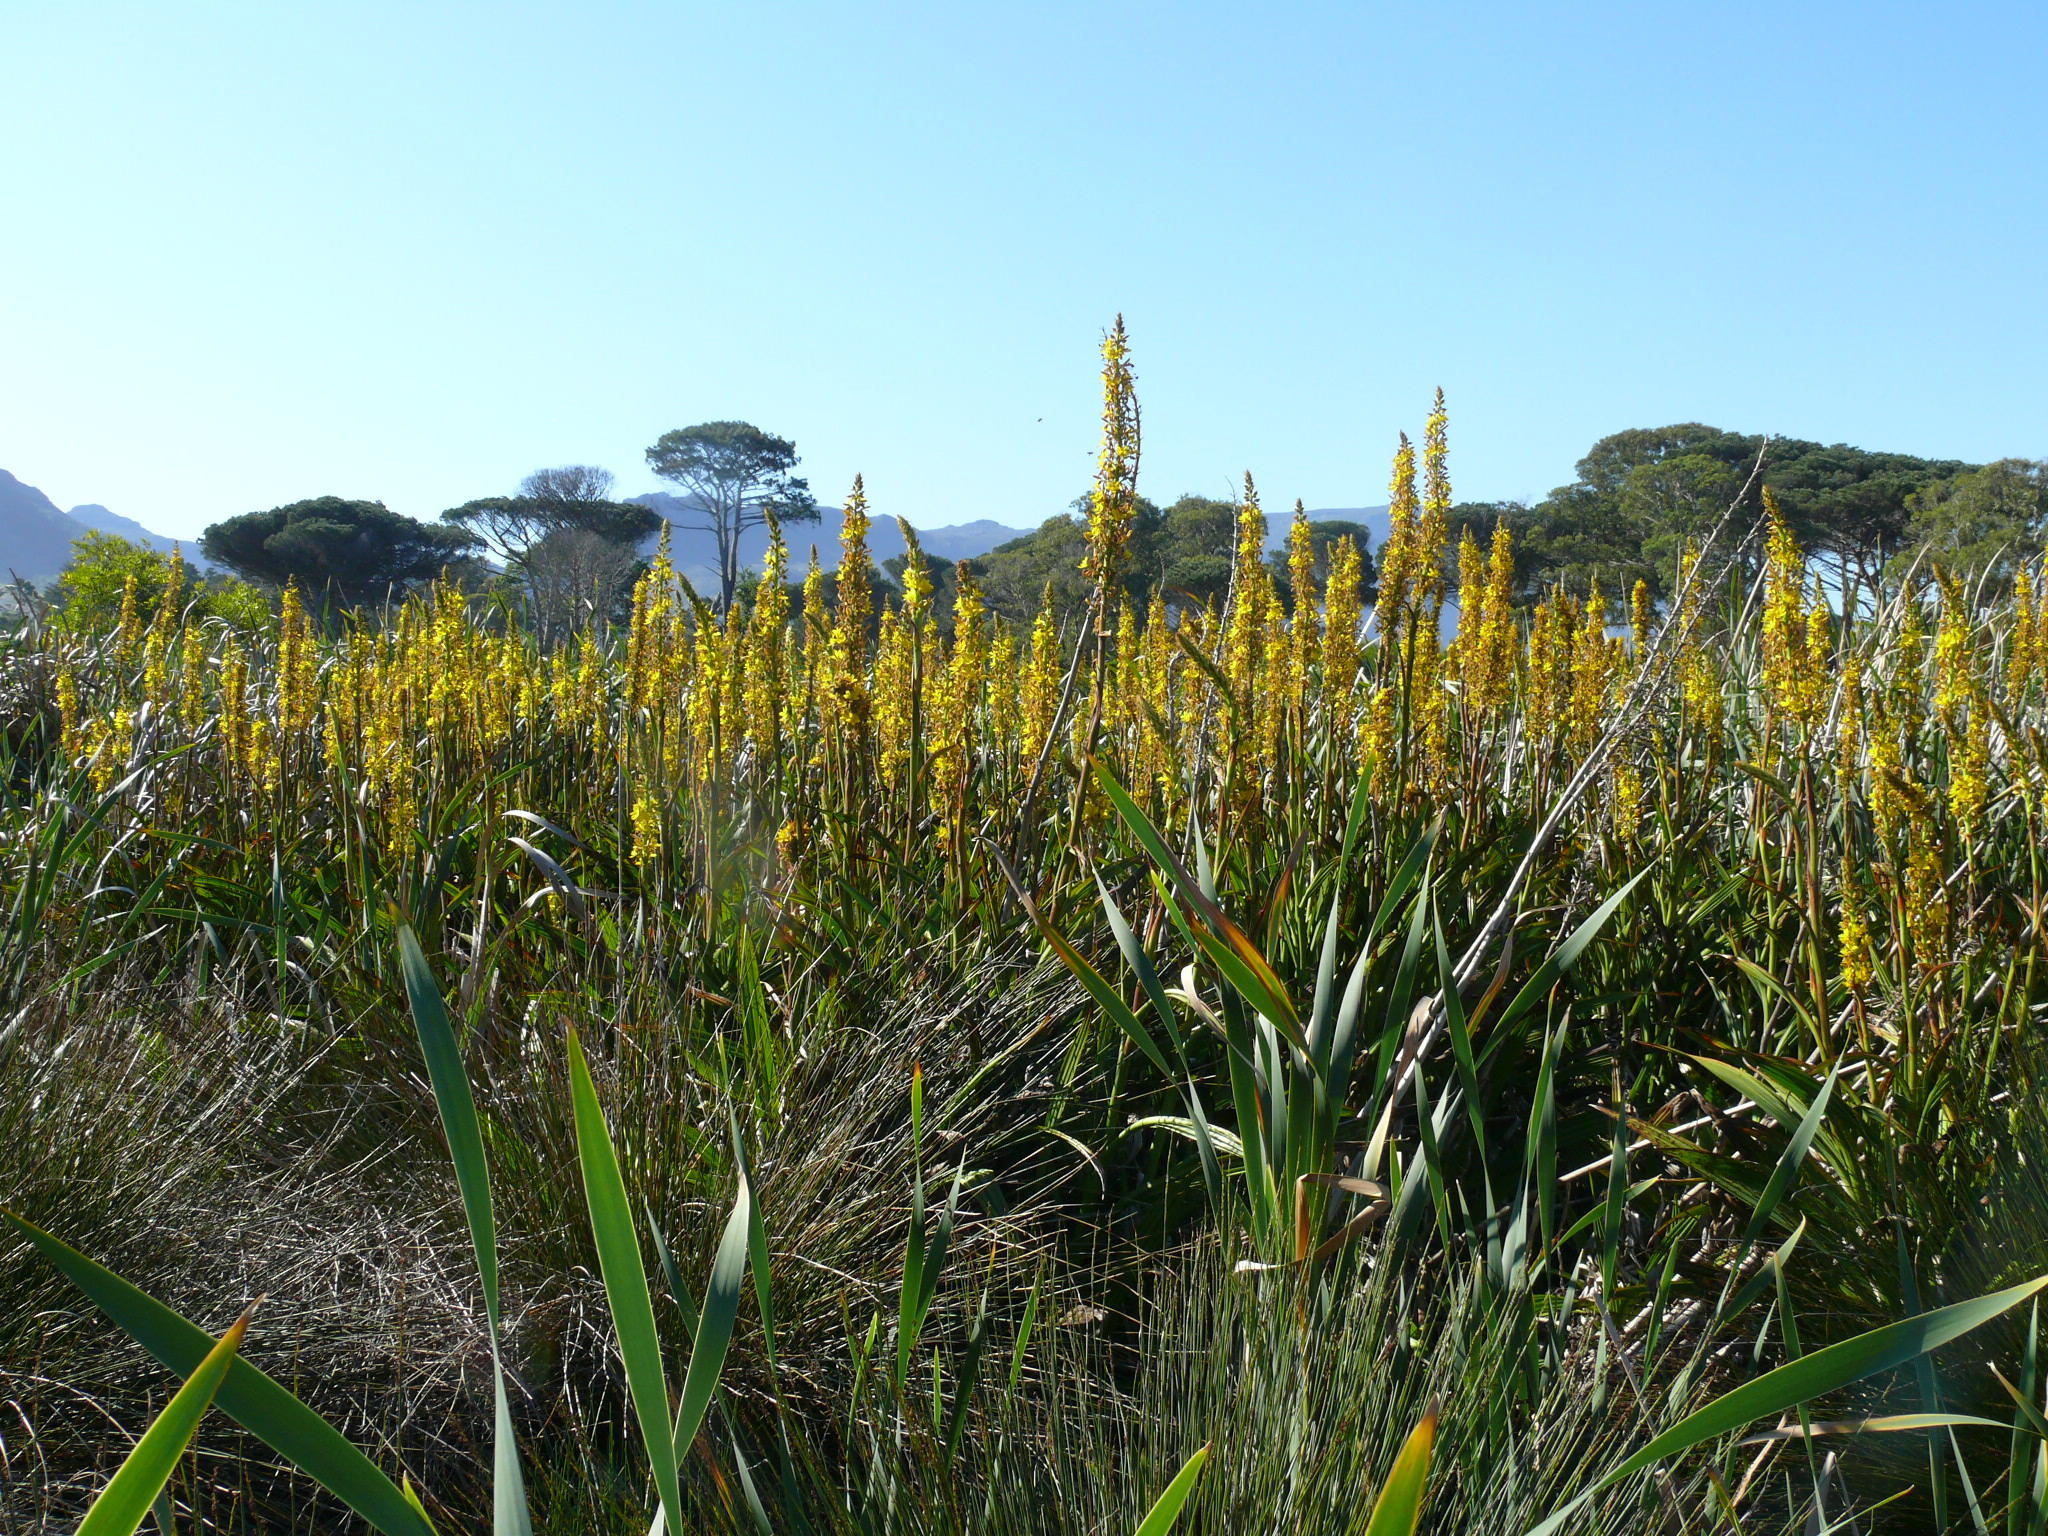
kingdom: Plantae
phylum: Tracheophyta
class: Liliopsida
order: Commelinales
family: Haemodoraceae
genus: Wachendorfia
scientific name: Wachendorfia thyrsiflora
